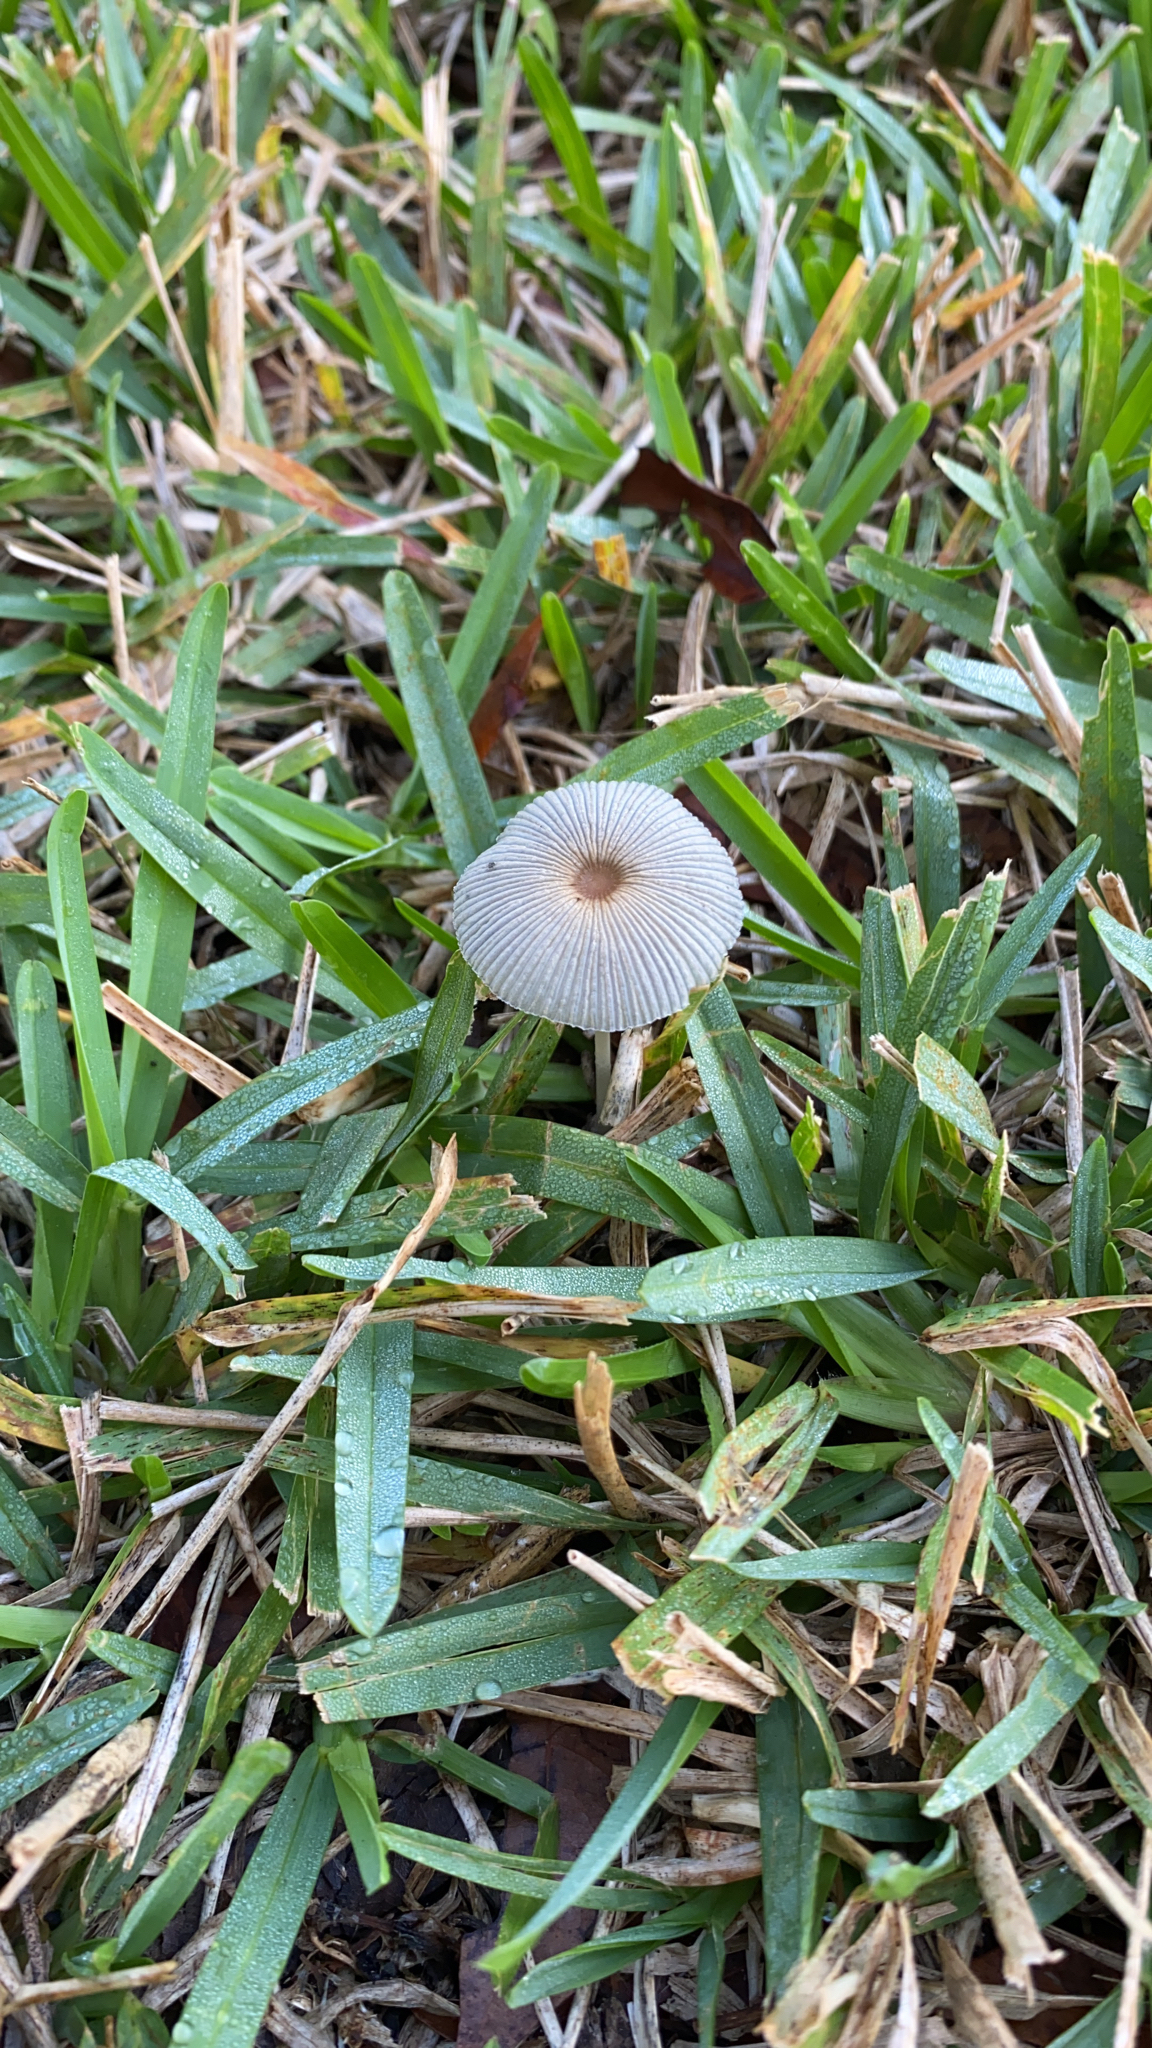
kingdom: Fungi
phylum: Basidiomycota
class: Agaricomycetes
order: Agaricales
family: Psathyrellaceae
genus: Parasola
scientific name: Parasola plicatilis
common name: Pleated inkcap
